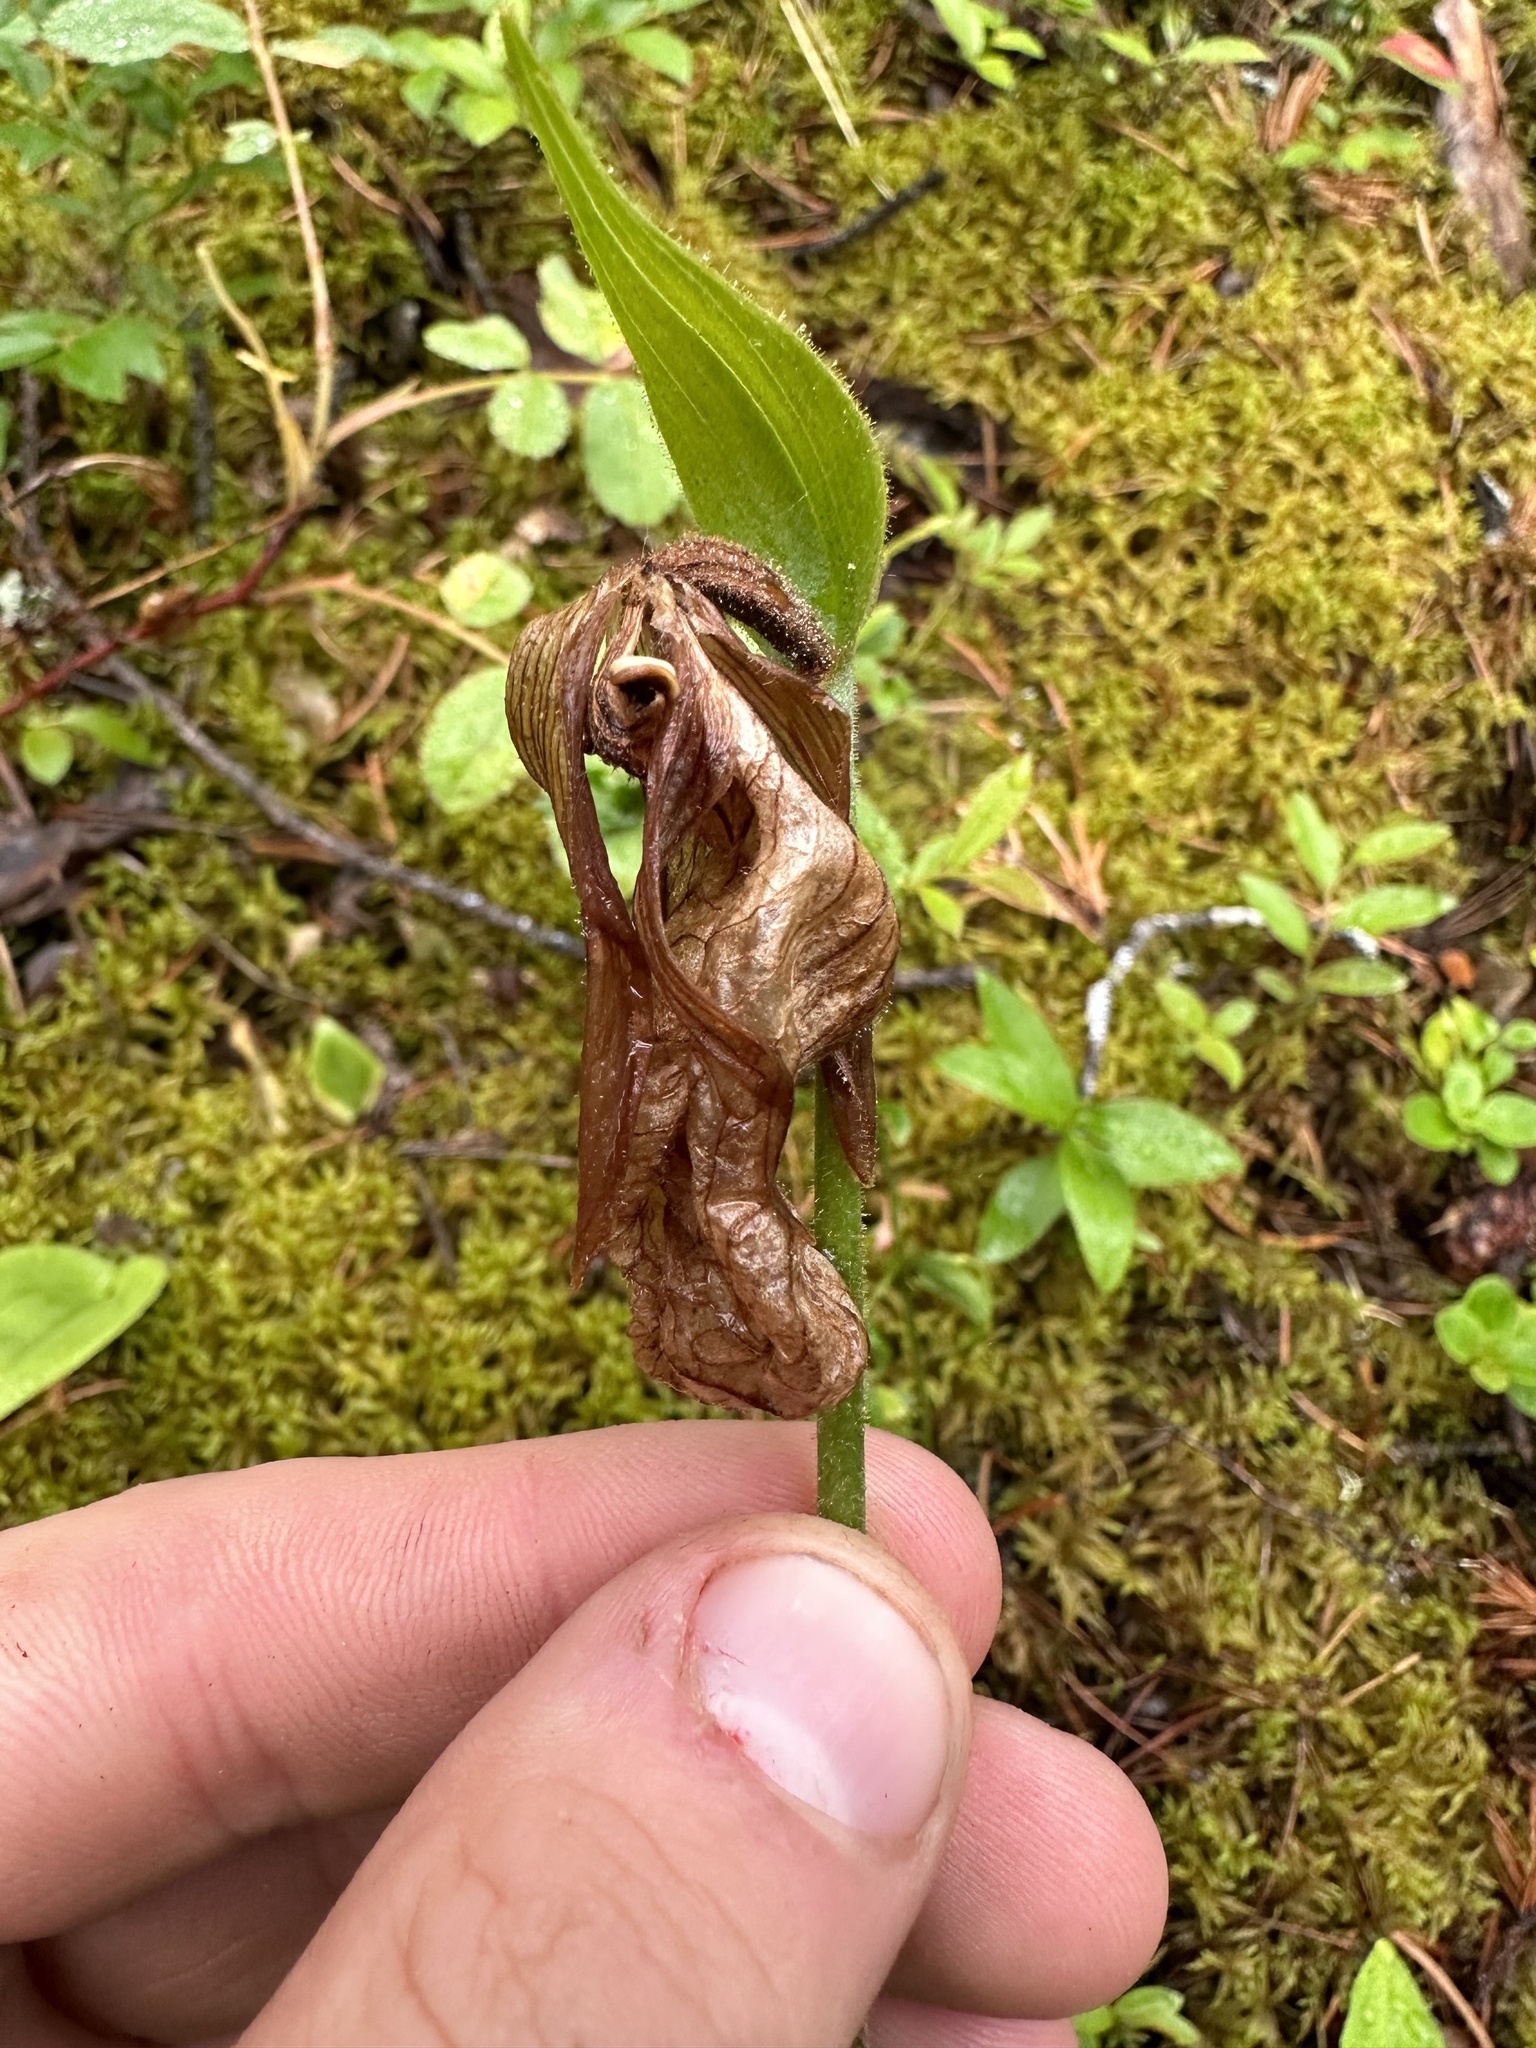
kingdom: Plantae
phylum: Tracheophyta
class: Liliopsida
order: Asparagales
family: Orchidaceae
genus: Cypripedium
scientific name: Cypripedium acaule
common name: Pink lady's-slipper
